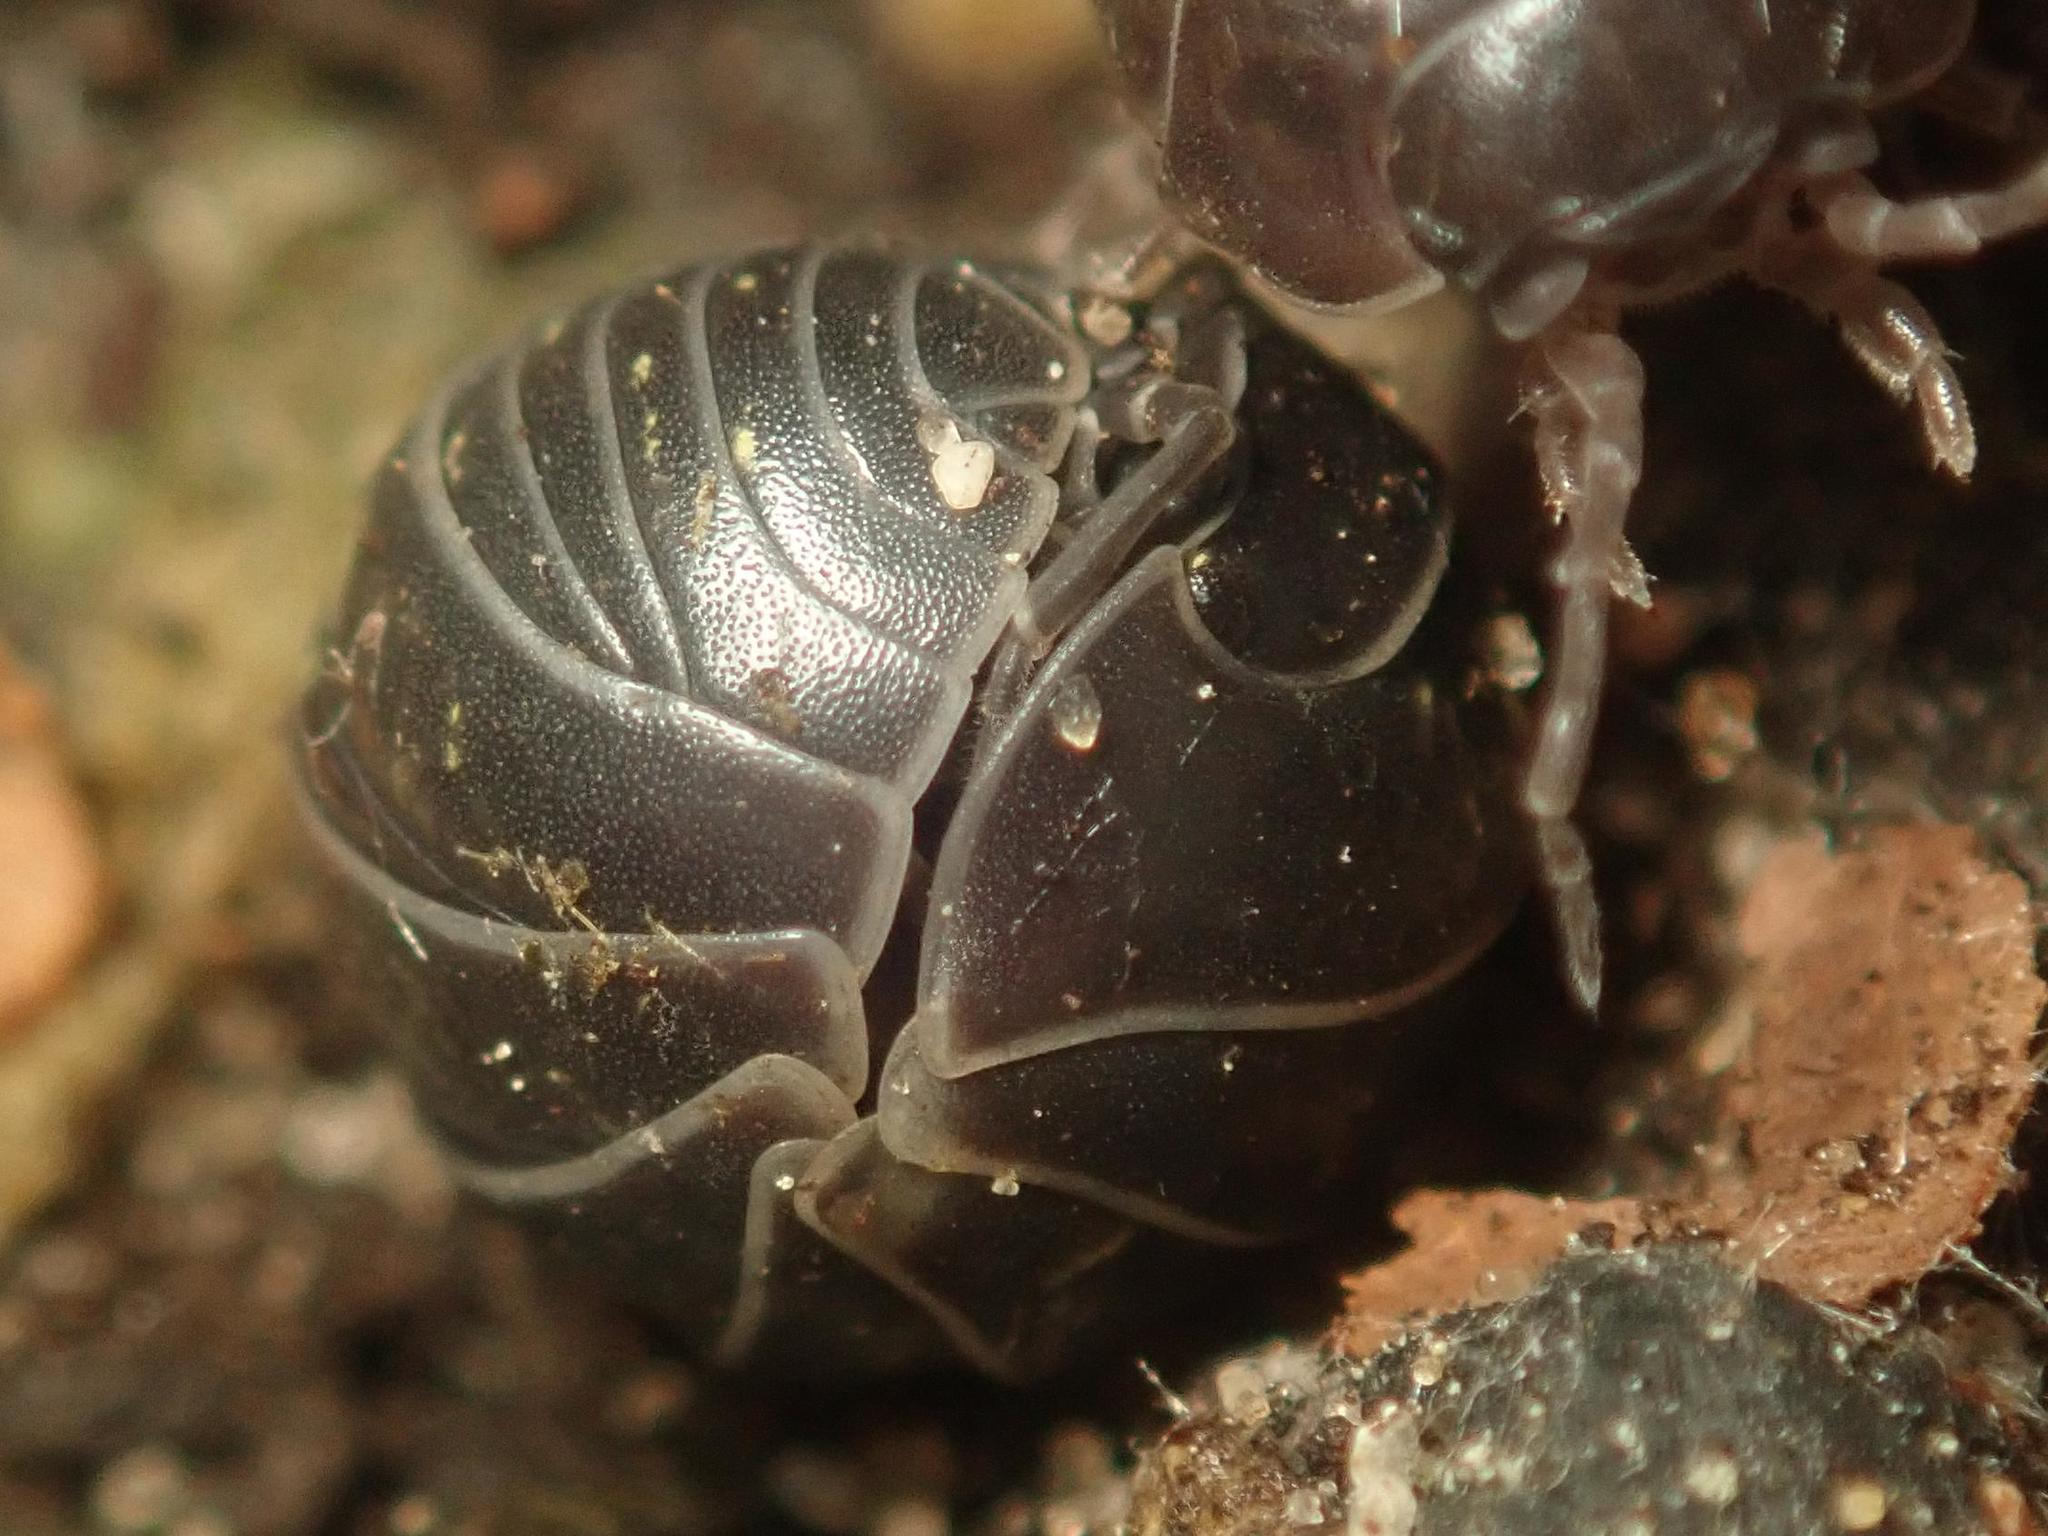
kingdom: Animalia
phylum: Arthropoda
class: Malacostraca
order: Isopoda
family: Armadillidiidae
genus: Armadillidium
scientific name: Armadillidium vulgare
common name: Common pill woodlouse
